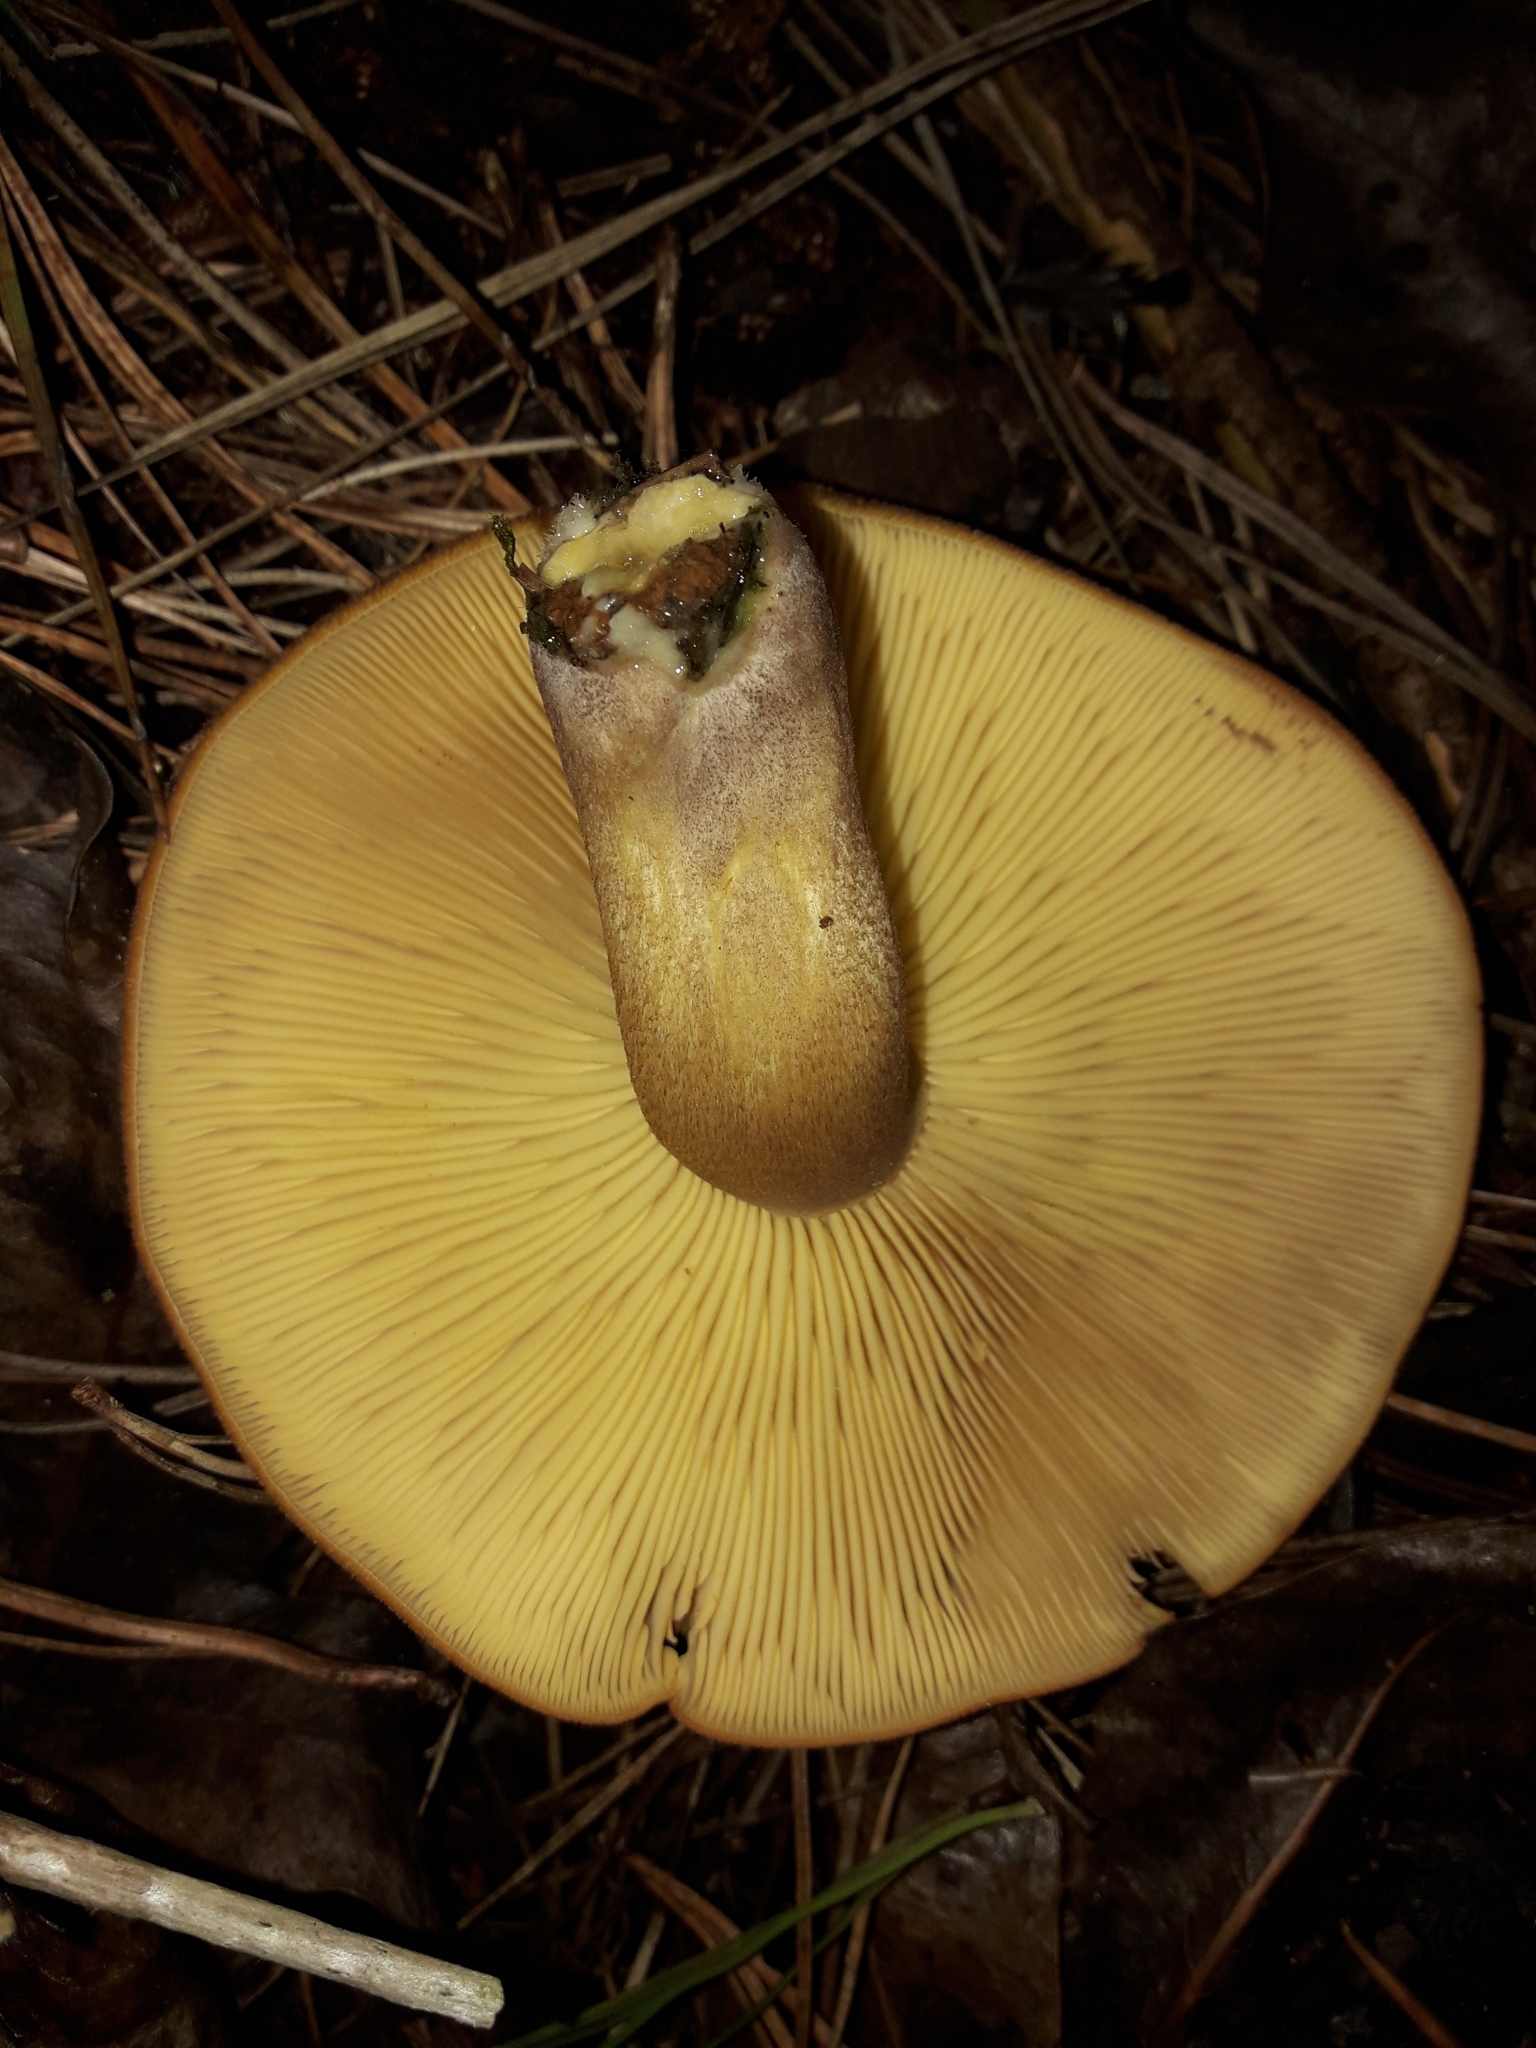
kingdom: Fungi
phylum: Basidiomycota
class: Agaricomycetes
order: Agaricales
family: Tricholomataceae
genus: Tricholomopsis
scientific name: Tricholomopsis ornaticeps
